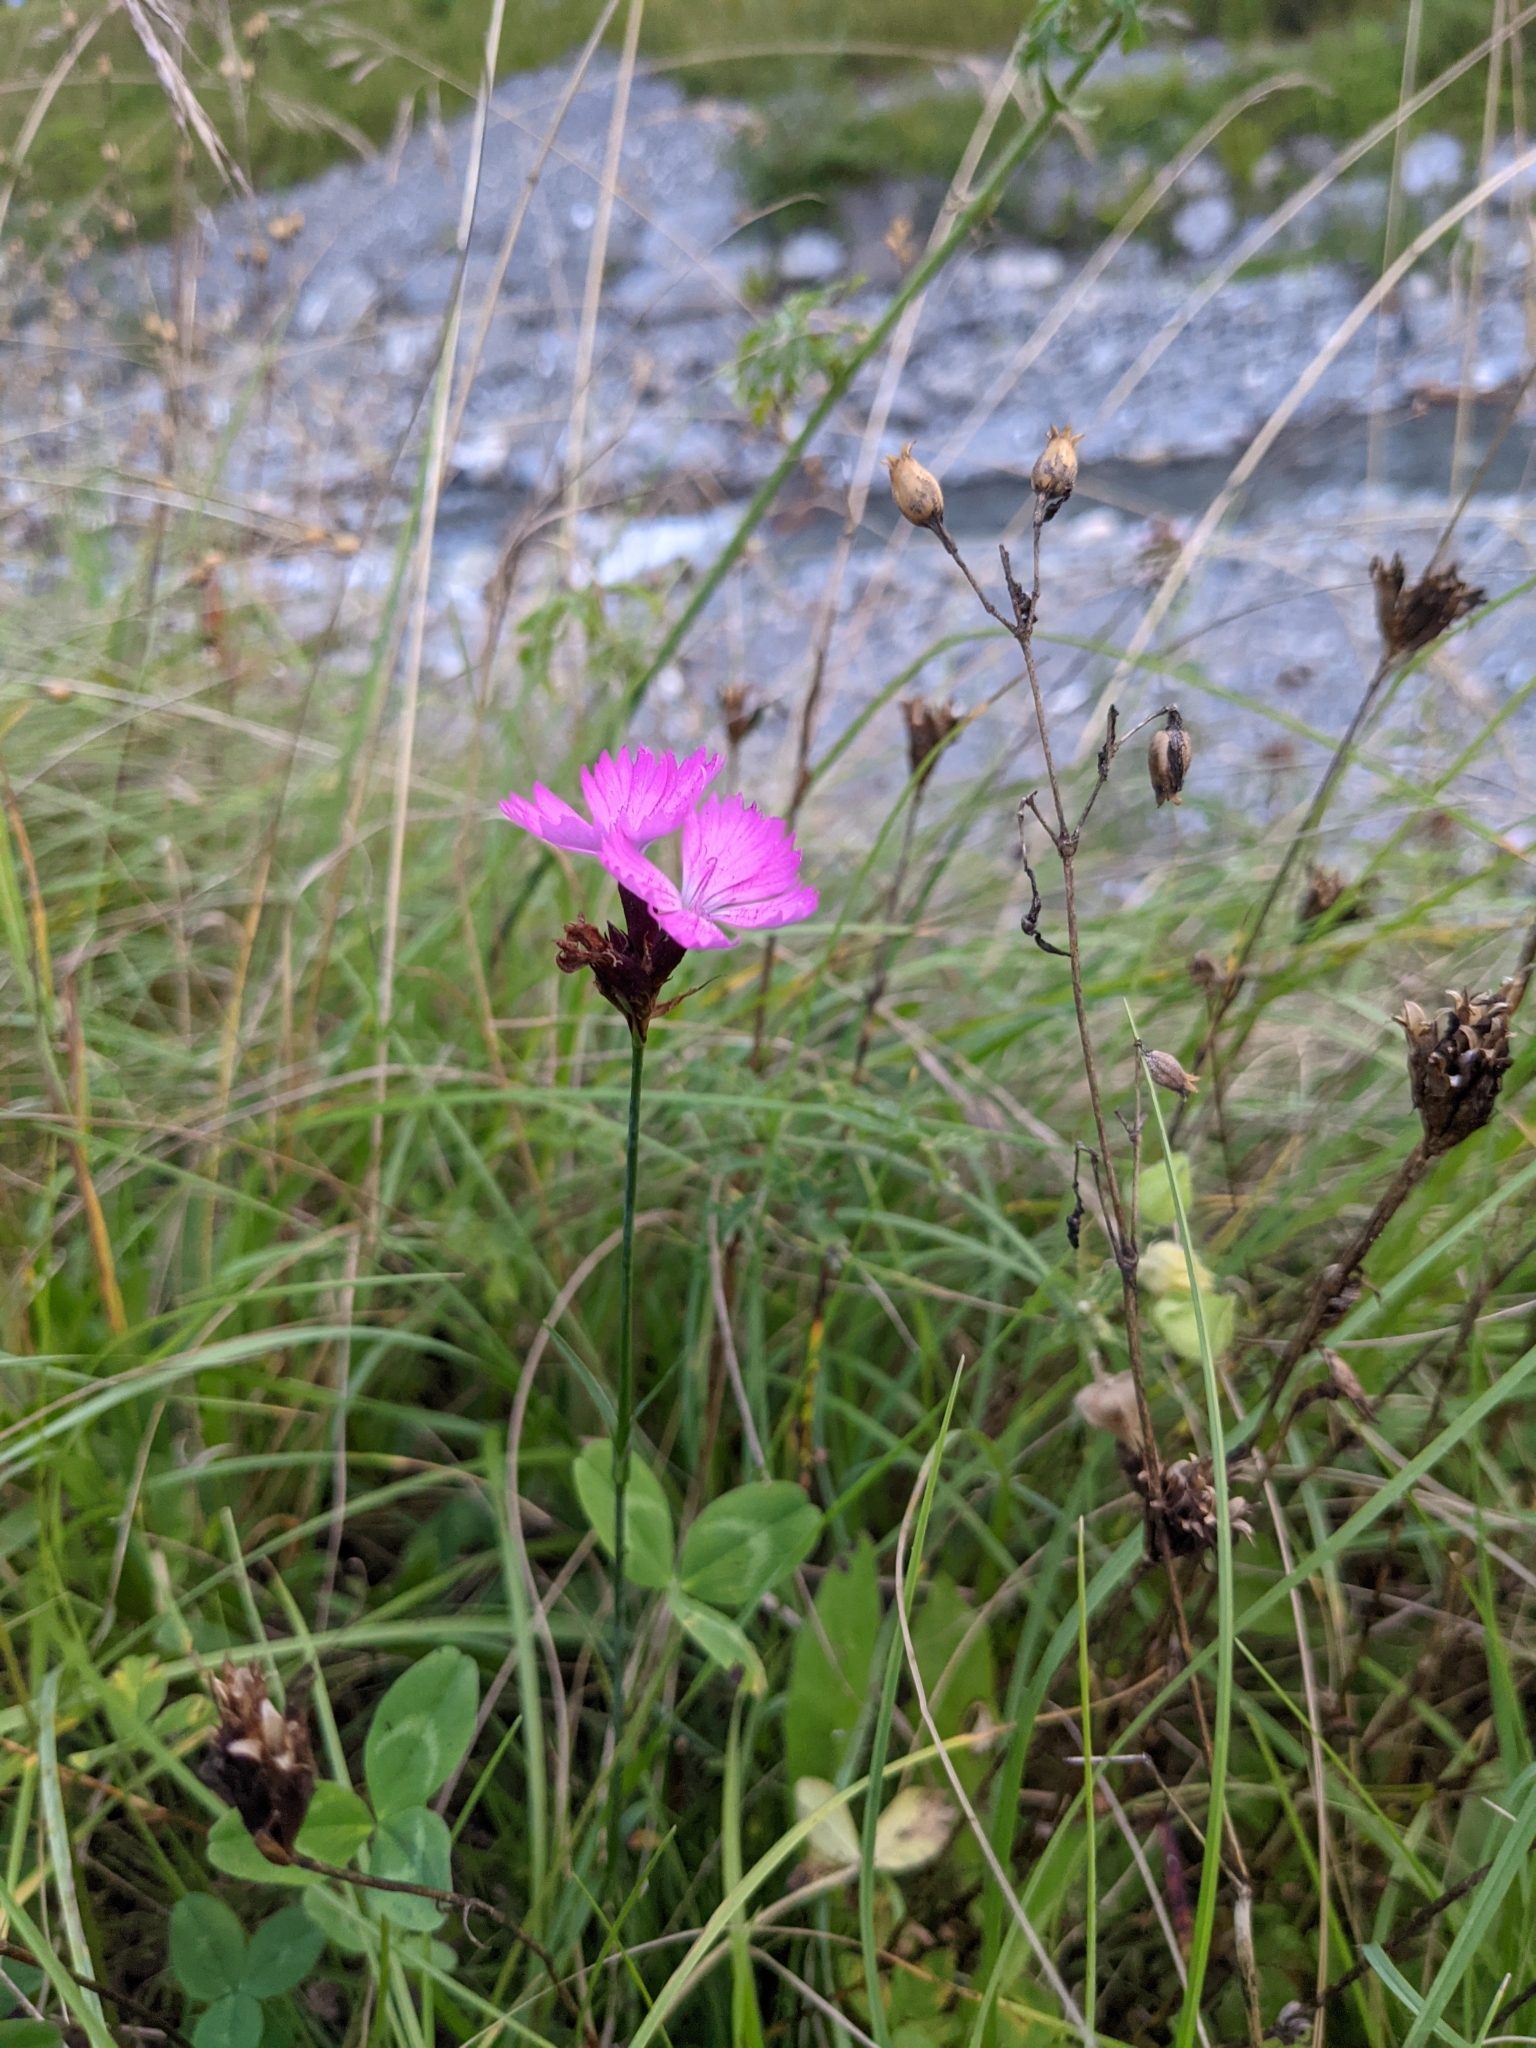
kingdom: Plantae
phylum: Tracheophyta
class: Magnoliopsida
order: Caryophyllales
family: Caryophyllaceae
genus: Dianthus
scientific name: Dianthus carthusianorum
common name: Carthusian pink
